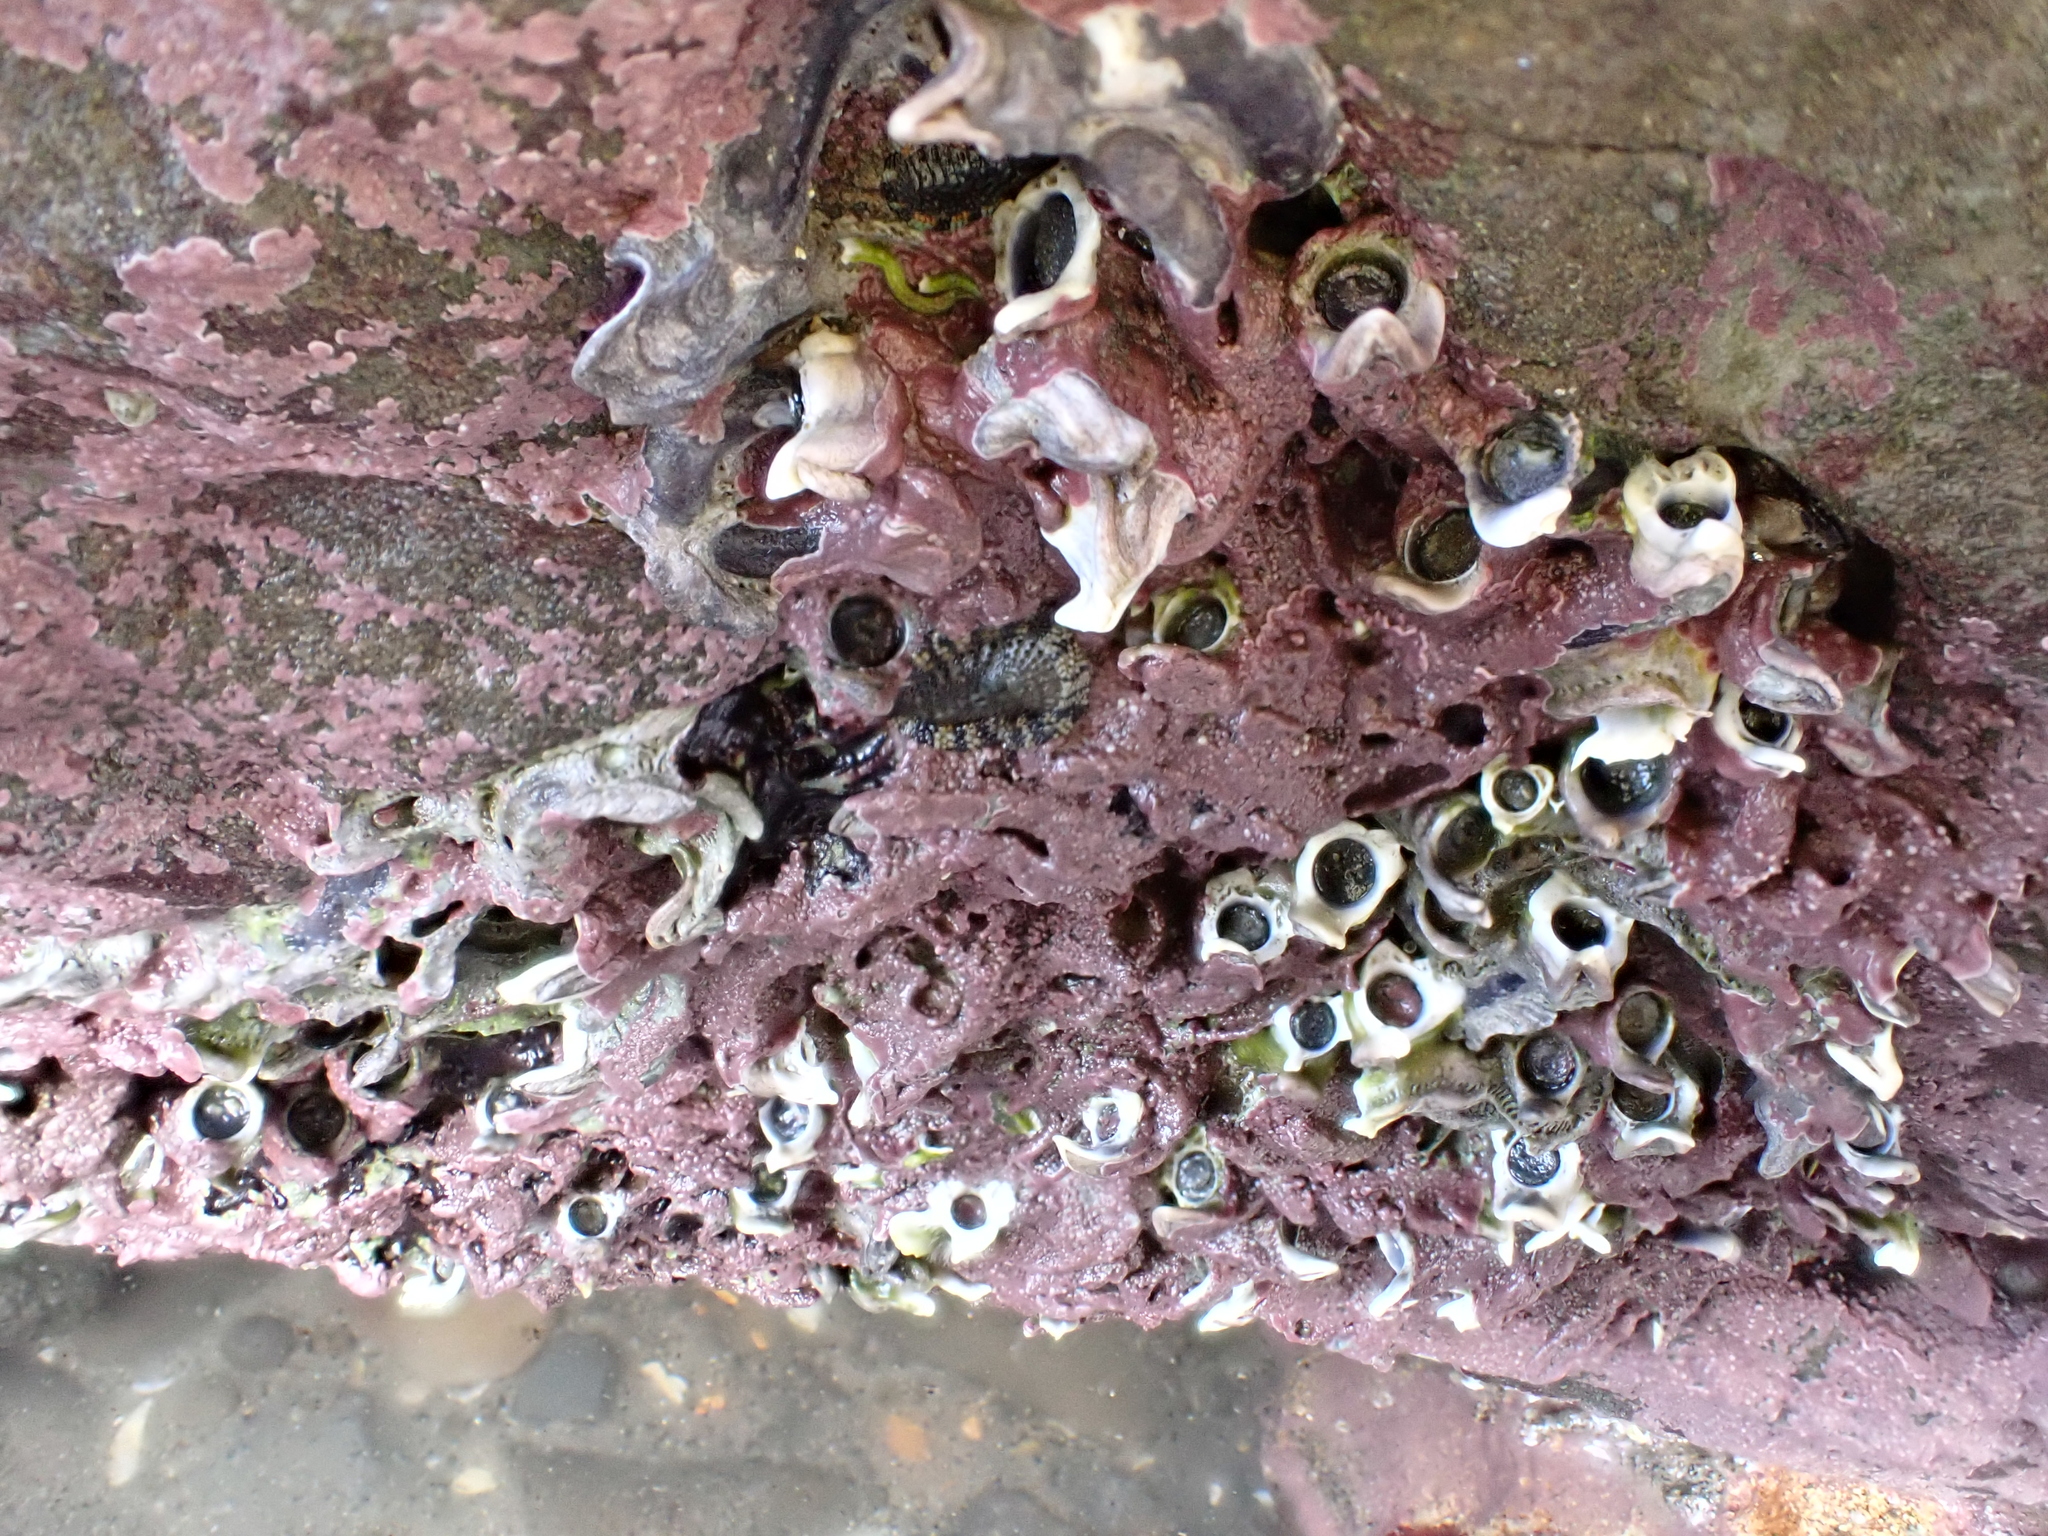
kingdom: Animalia
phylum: Annelida
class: Polychaeta
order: Sabellida
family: Serpulidae
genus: Spirobranchus
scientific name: Spirobranchus cariniferus
